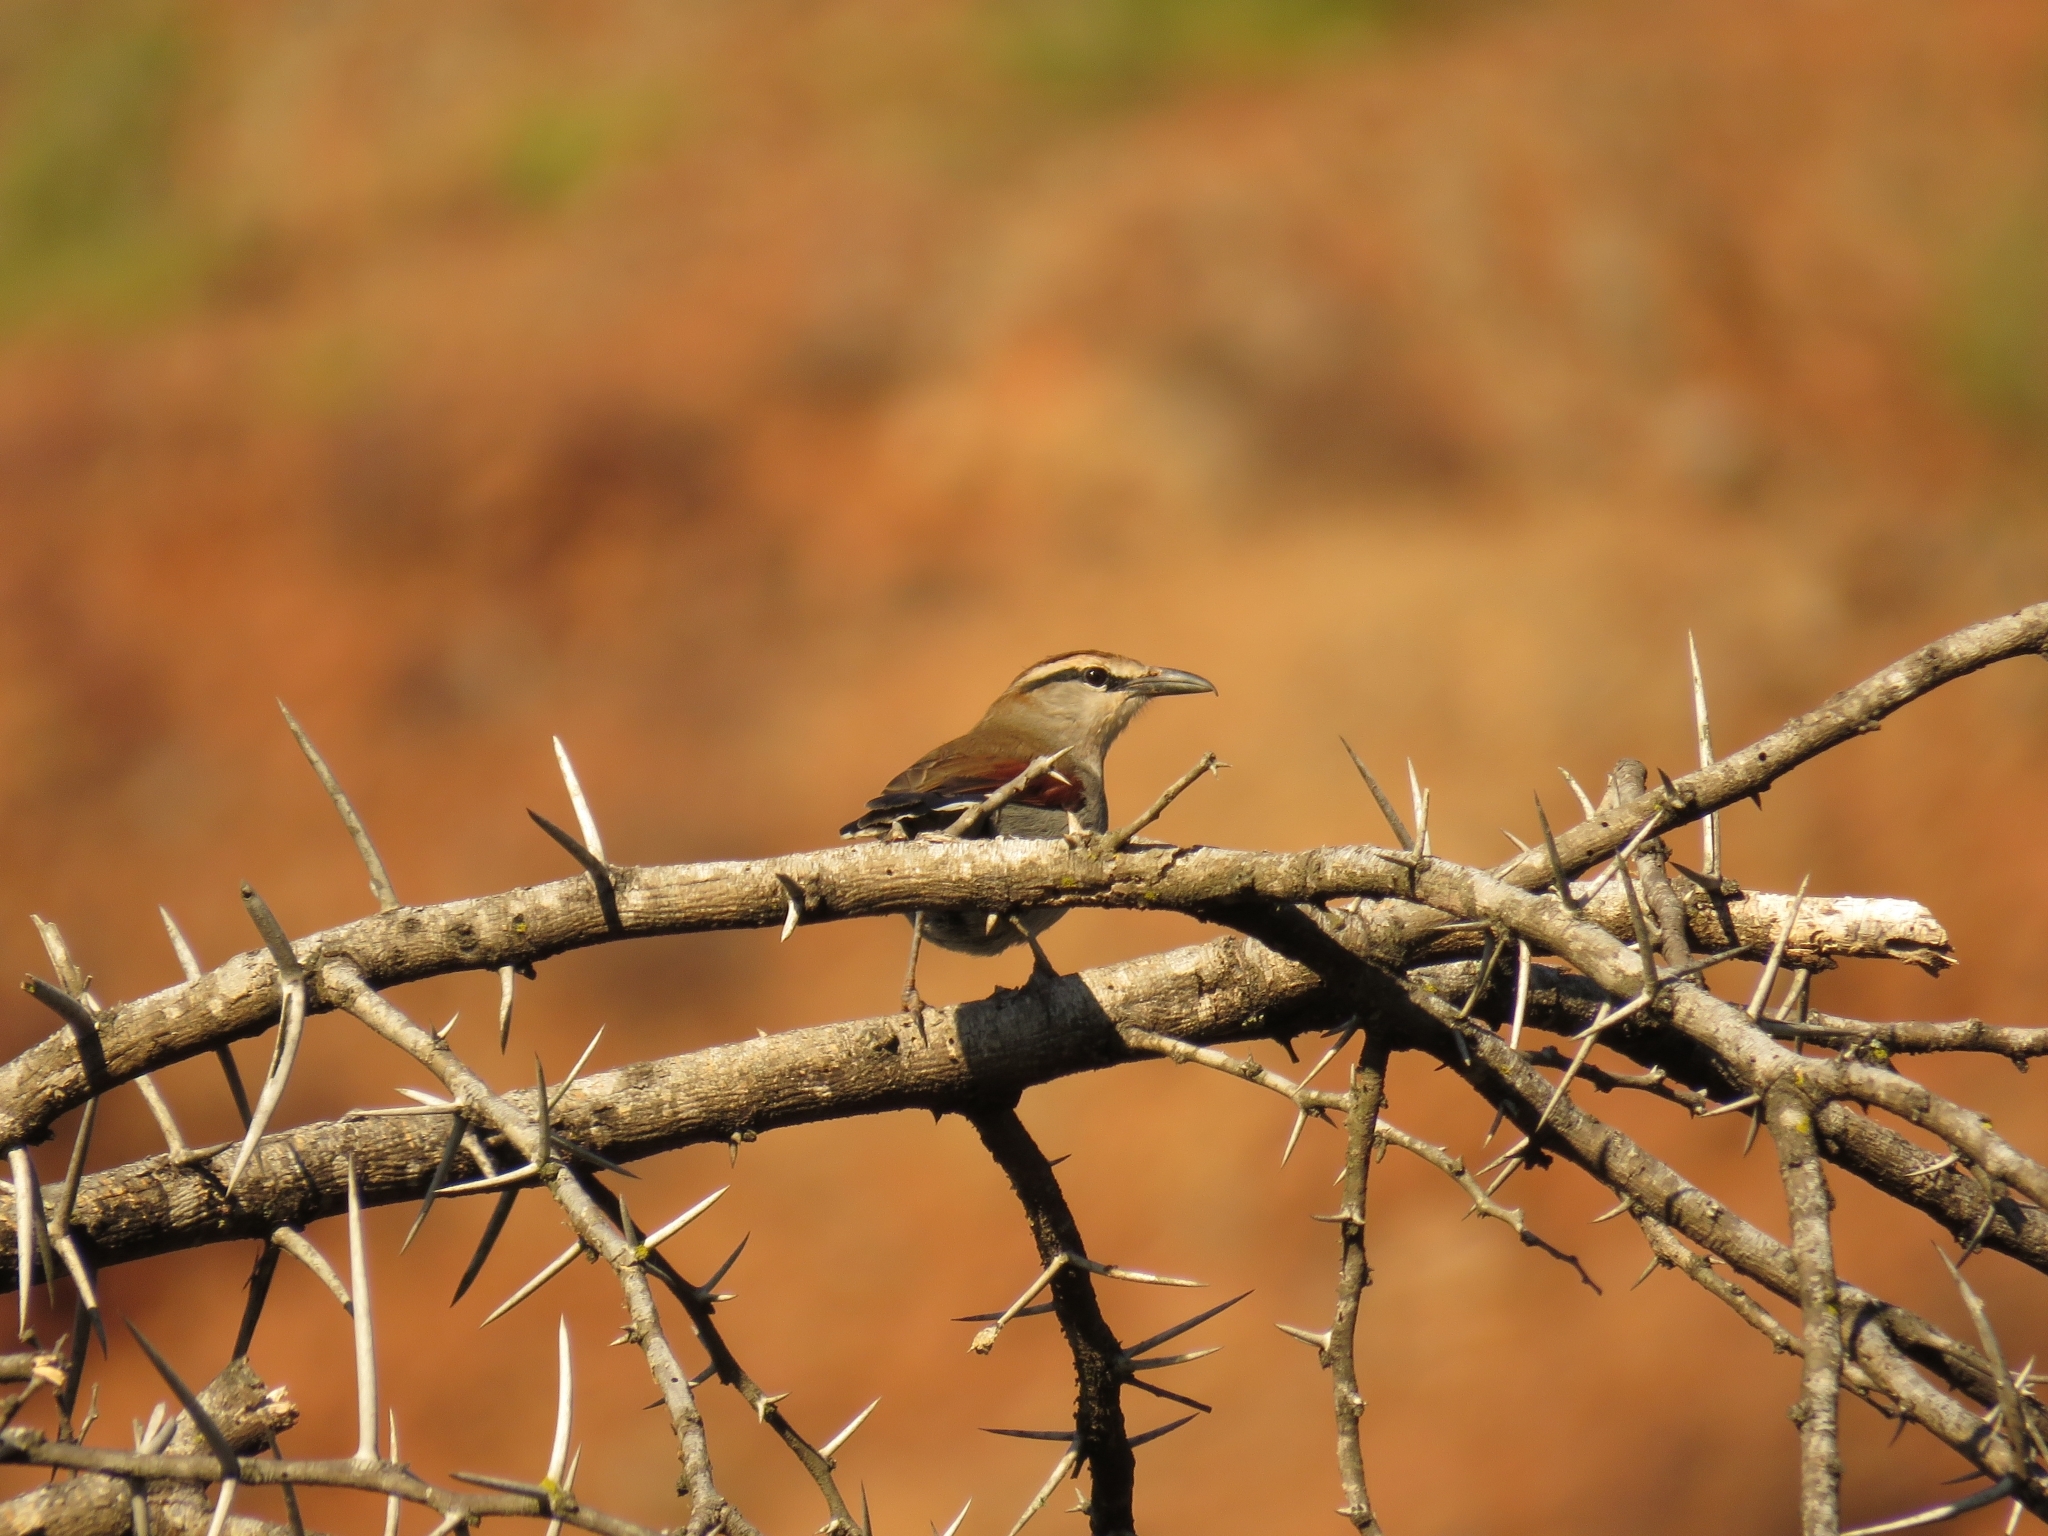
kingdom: Animalia
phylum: Chordata
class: Aves
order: Passeriformes
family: Malaconotidae
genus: Tchagra
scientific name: Tchagra tchagra
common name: Southern tchagra
